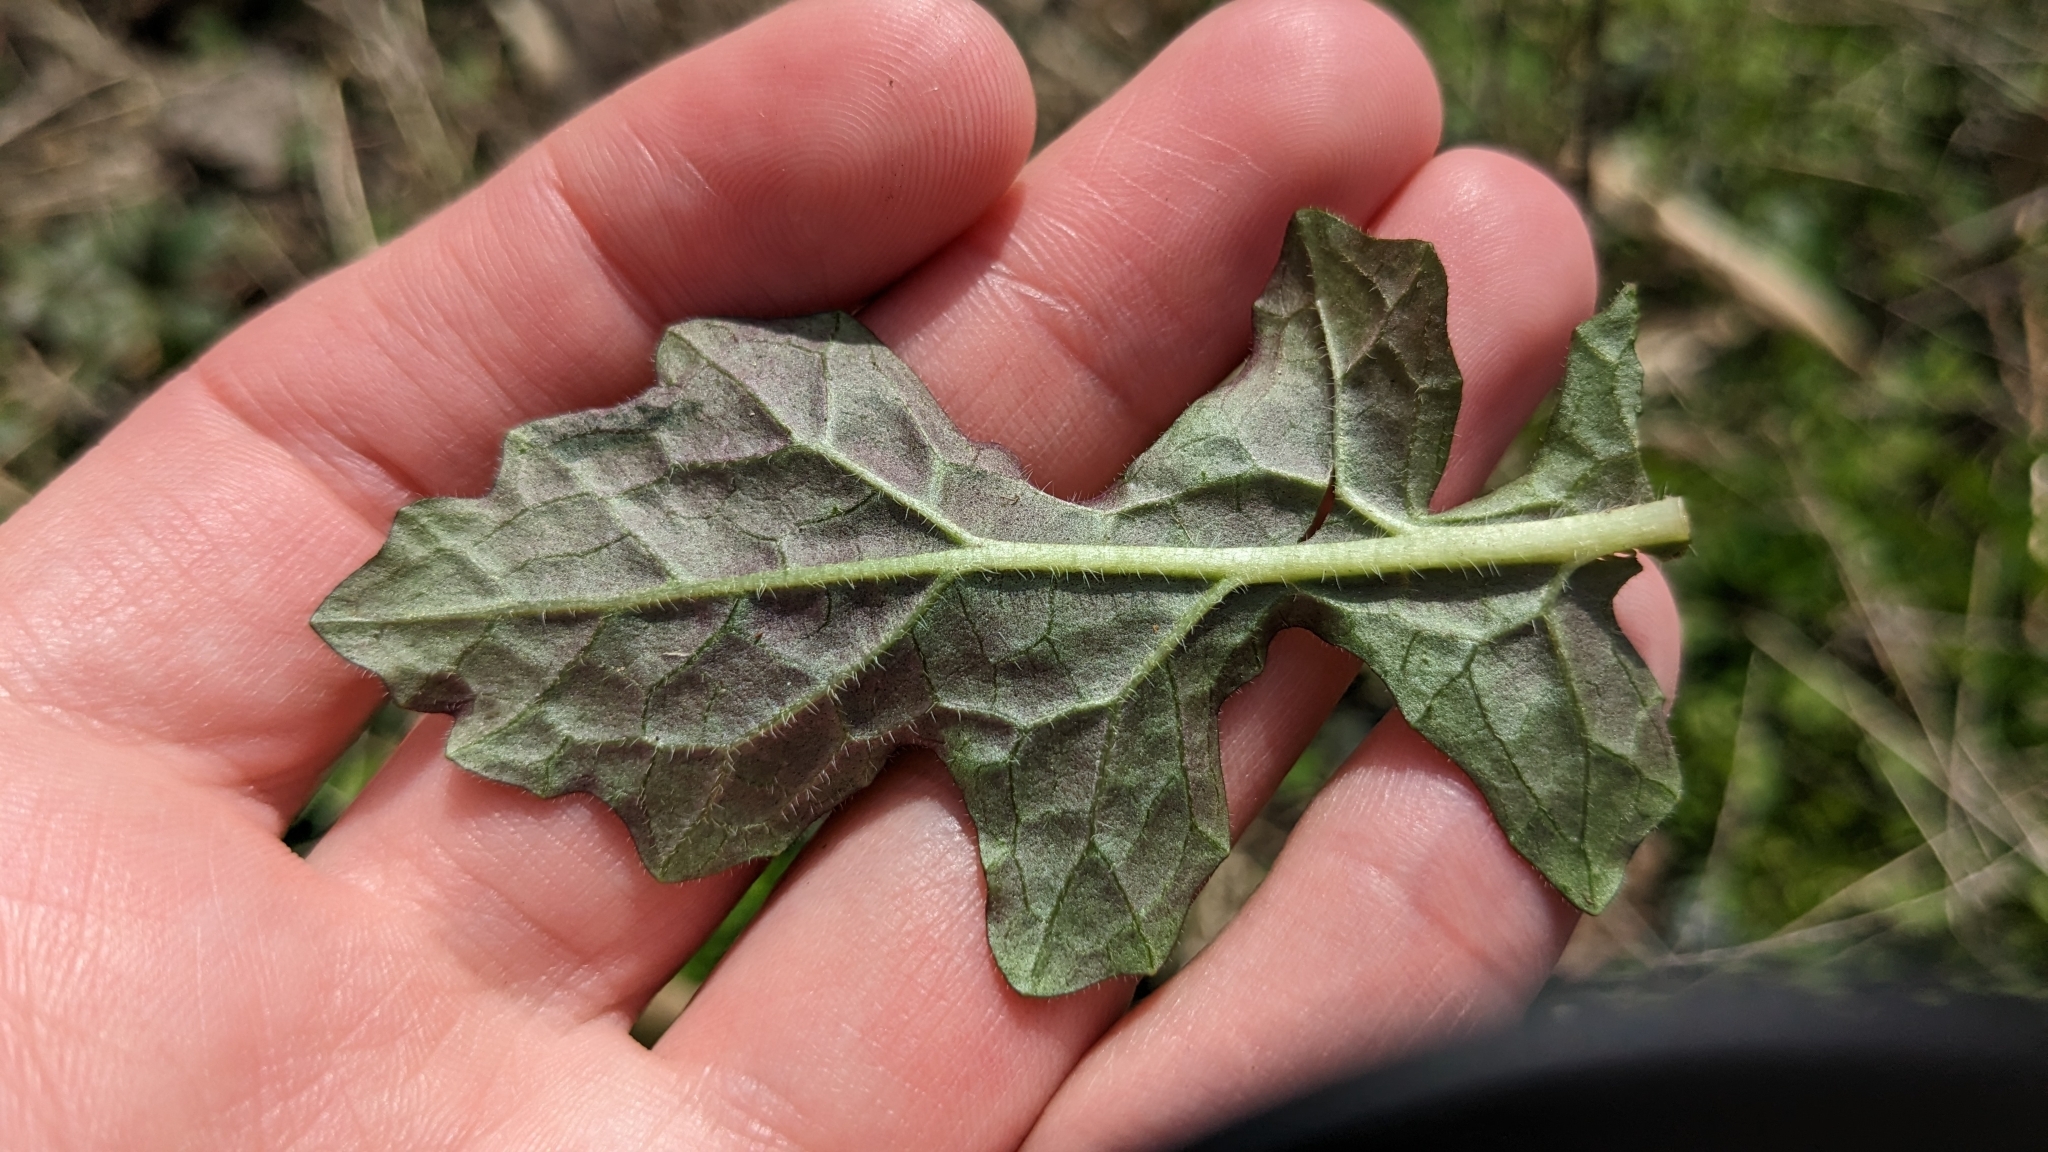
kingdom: Plantae
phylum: Tracheophyta
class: Magnoliopsida
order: Lamiales
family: Lamiaceae
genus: Salvia
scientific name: Salvia lyrata
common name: Cancerweed
